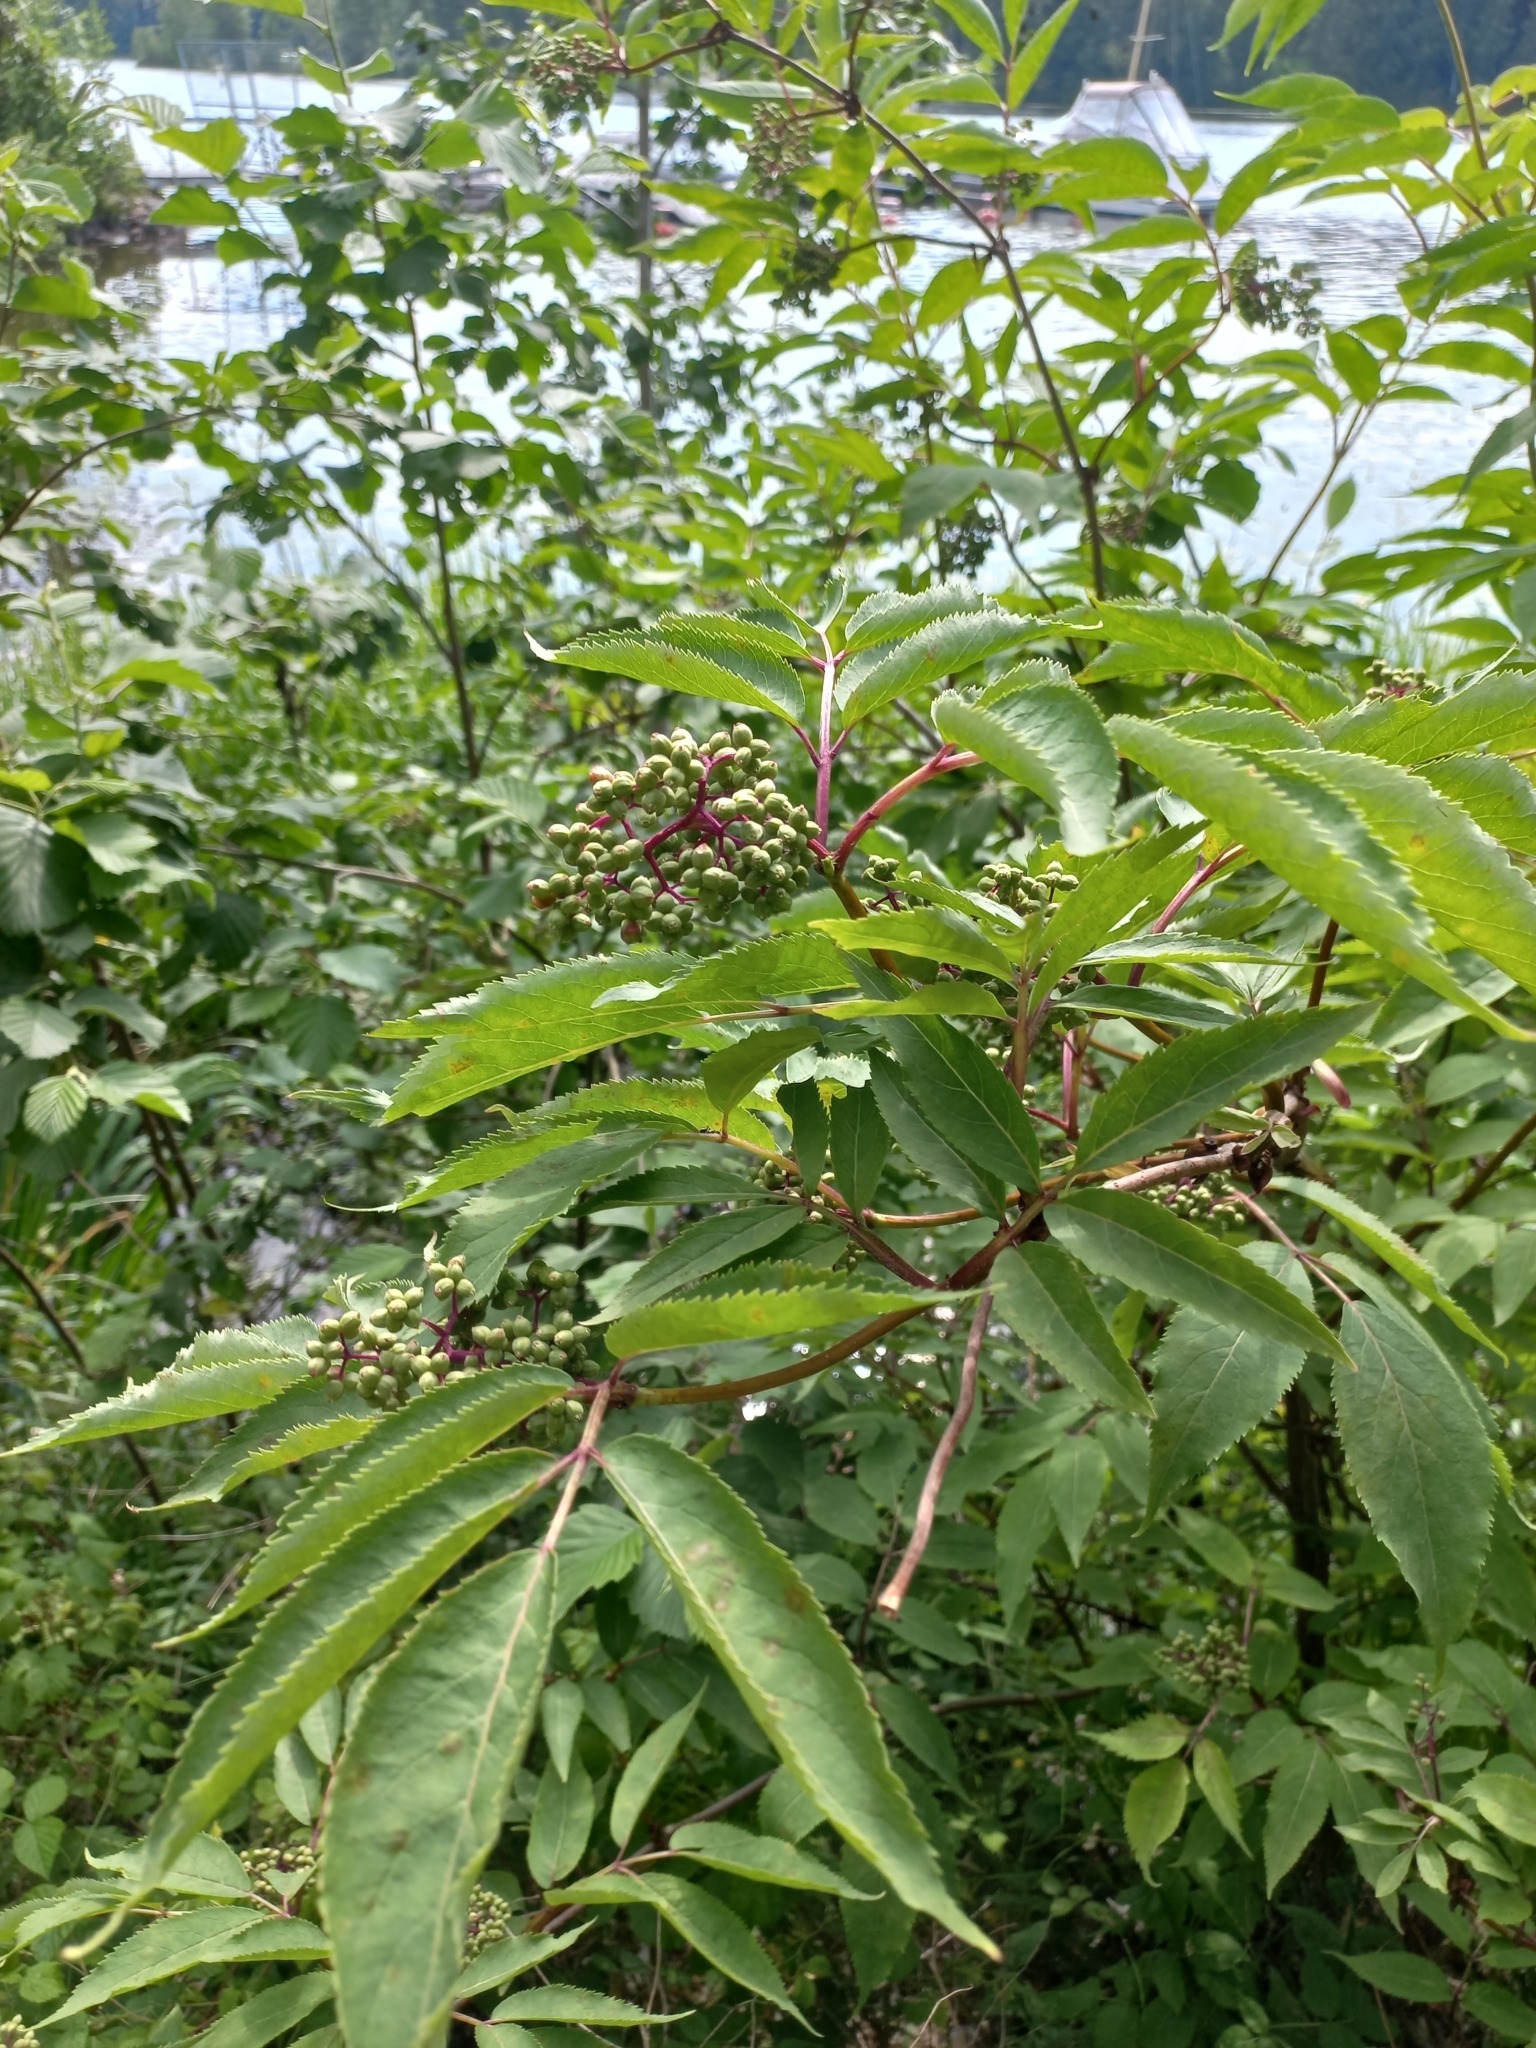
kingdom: Plantae
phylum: Tracheophyta
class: Magnoliopsida
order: Dipsacales
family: Viburnaceae
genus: Sambucus
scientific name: Sambucus racemosa
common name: Red-berried elder
